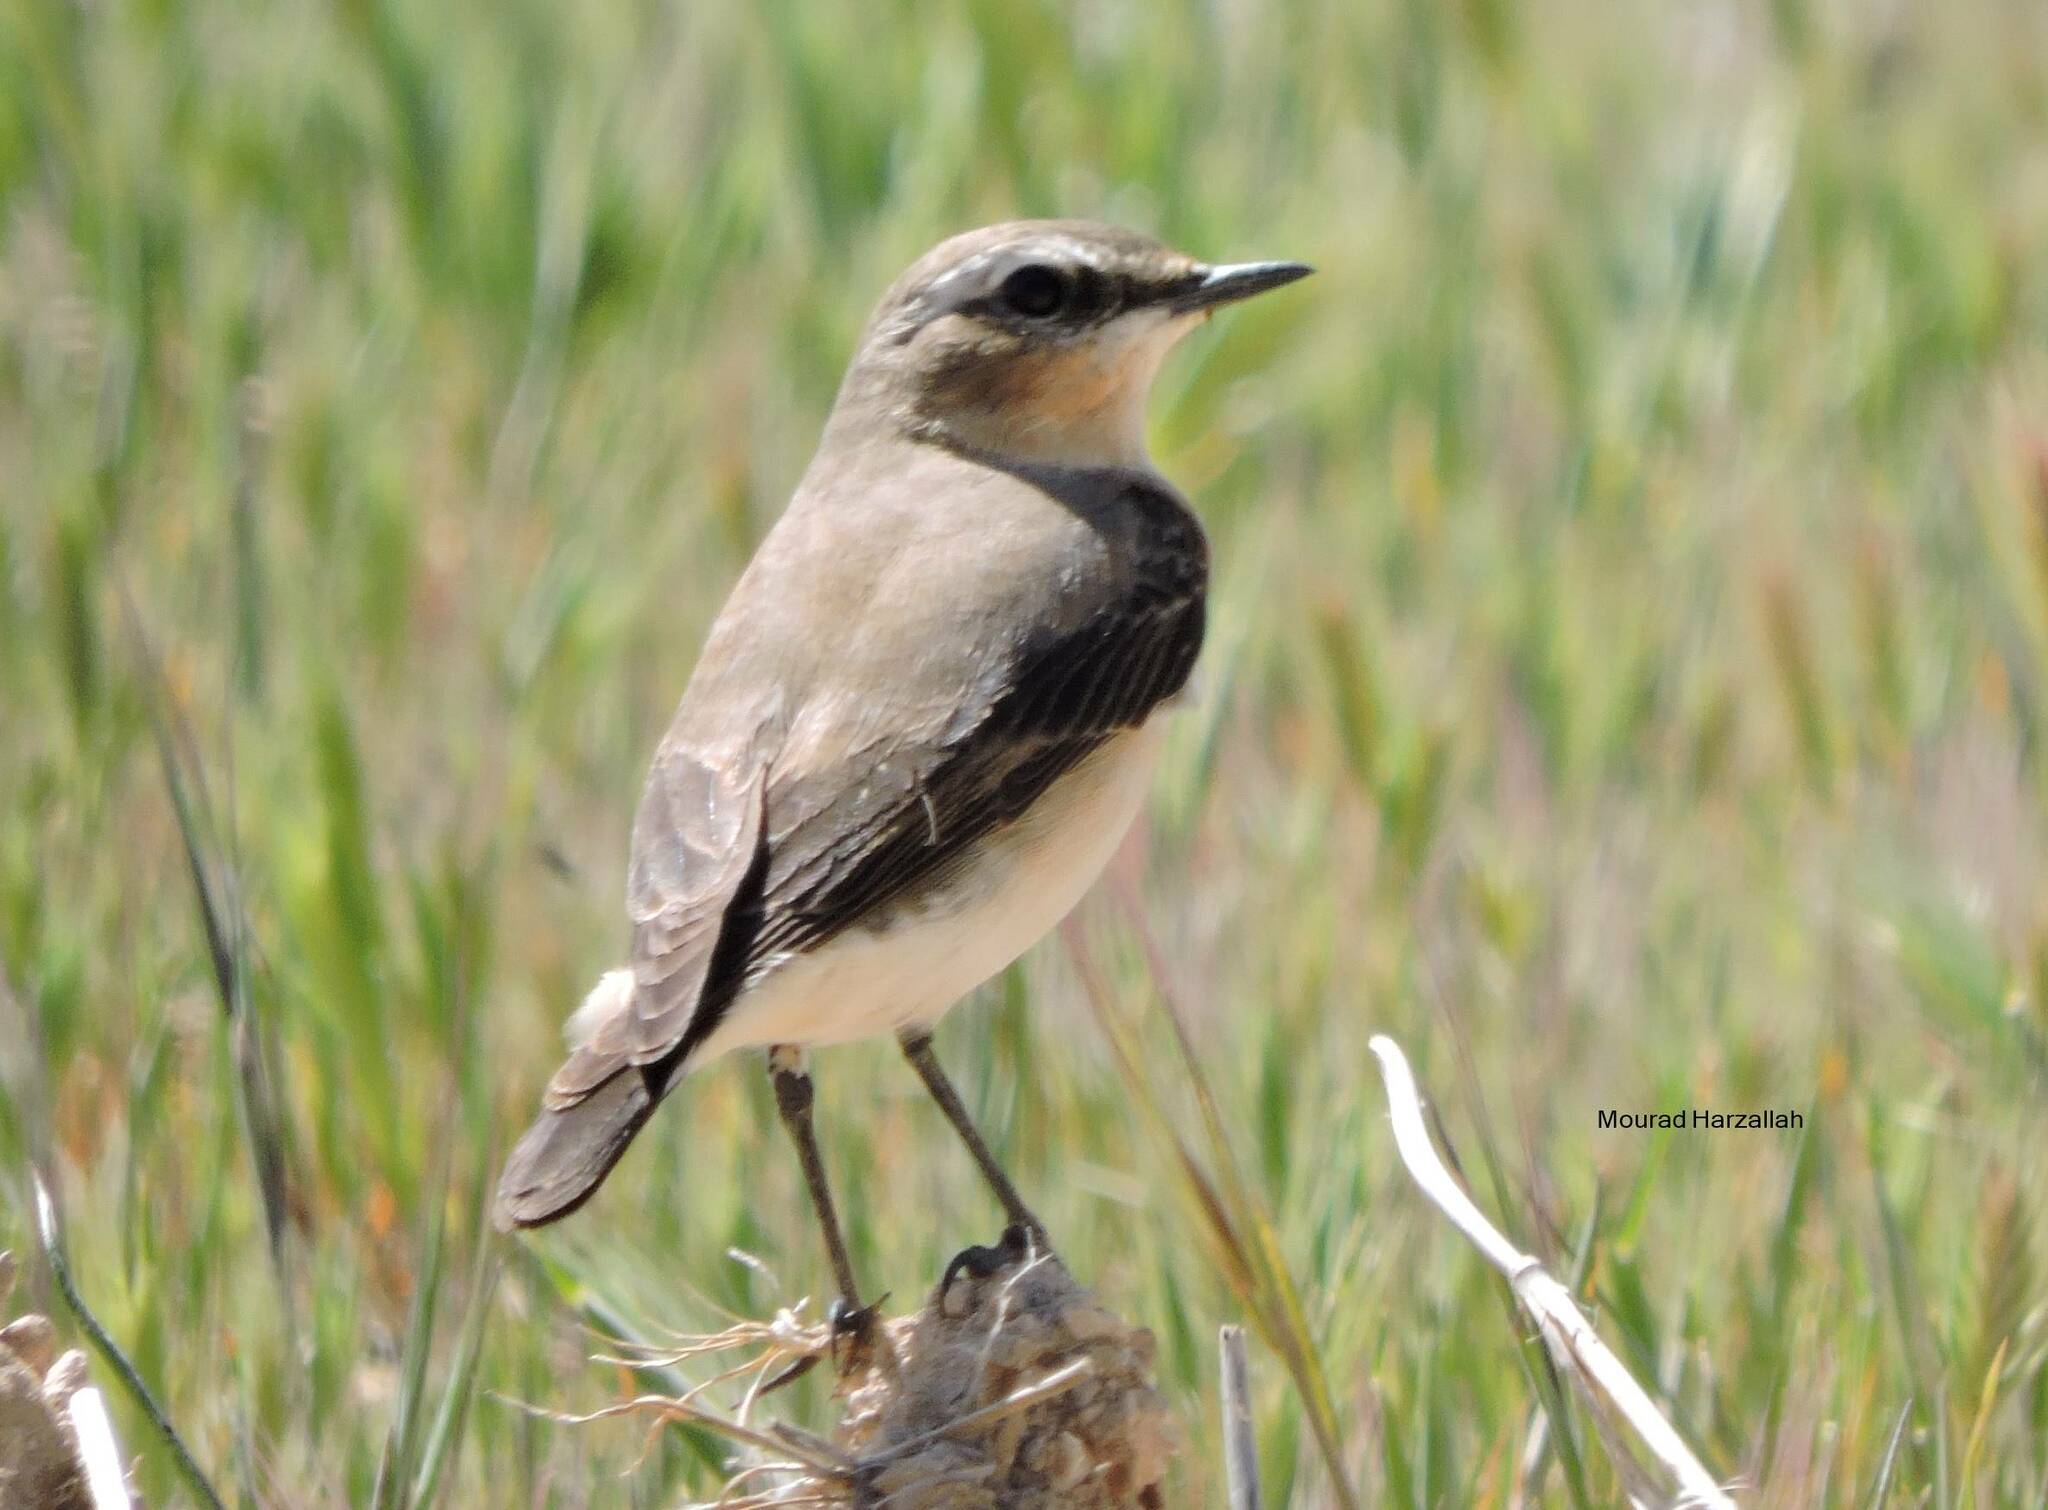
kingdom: Animalia
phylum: Chordata
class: Aves
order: Passeriformes
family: Muscicapidae
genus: Oenanthe
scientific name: Oenanthe oenanthe
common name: Northern wheatear
